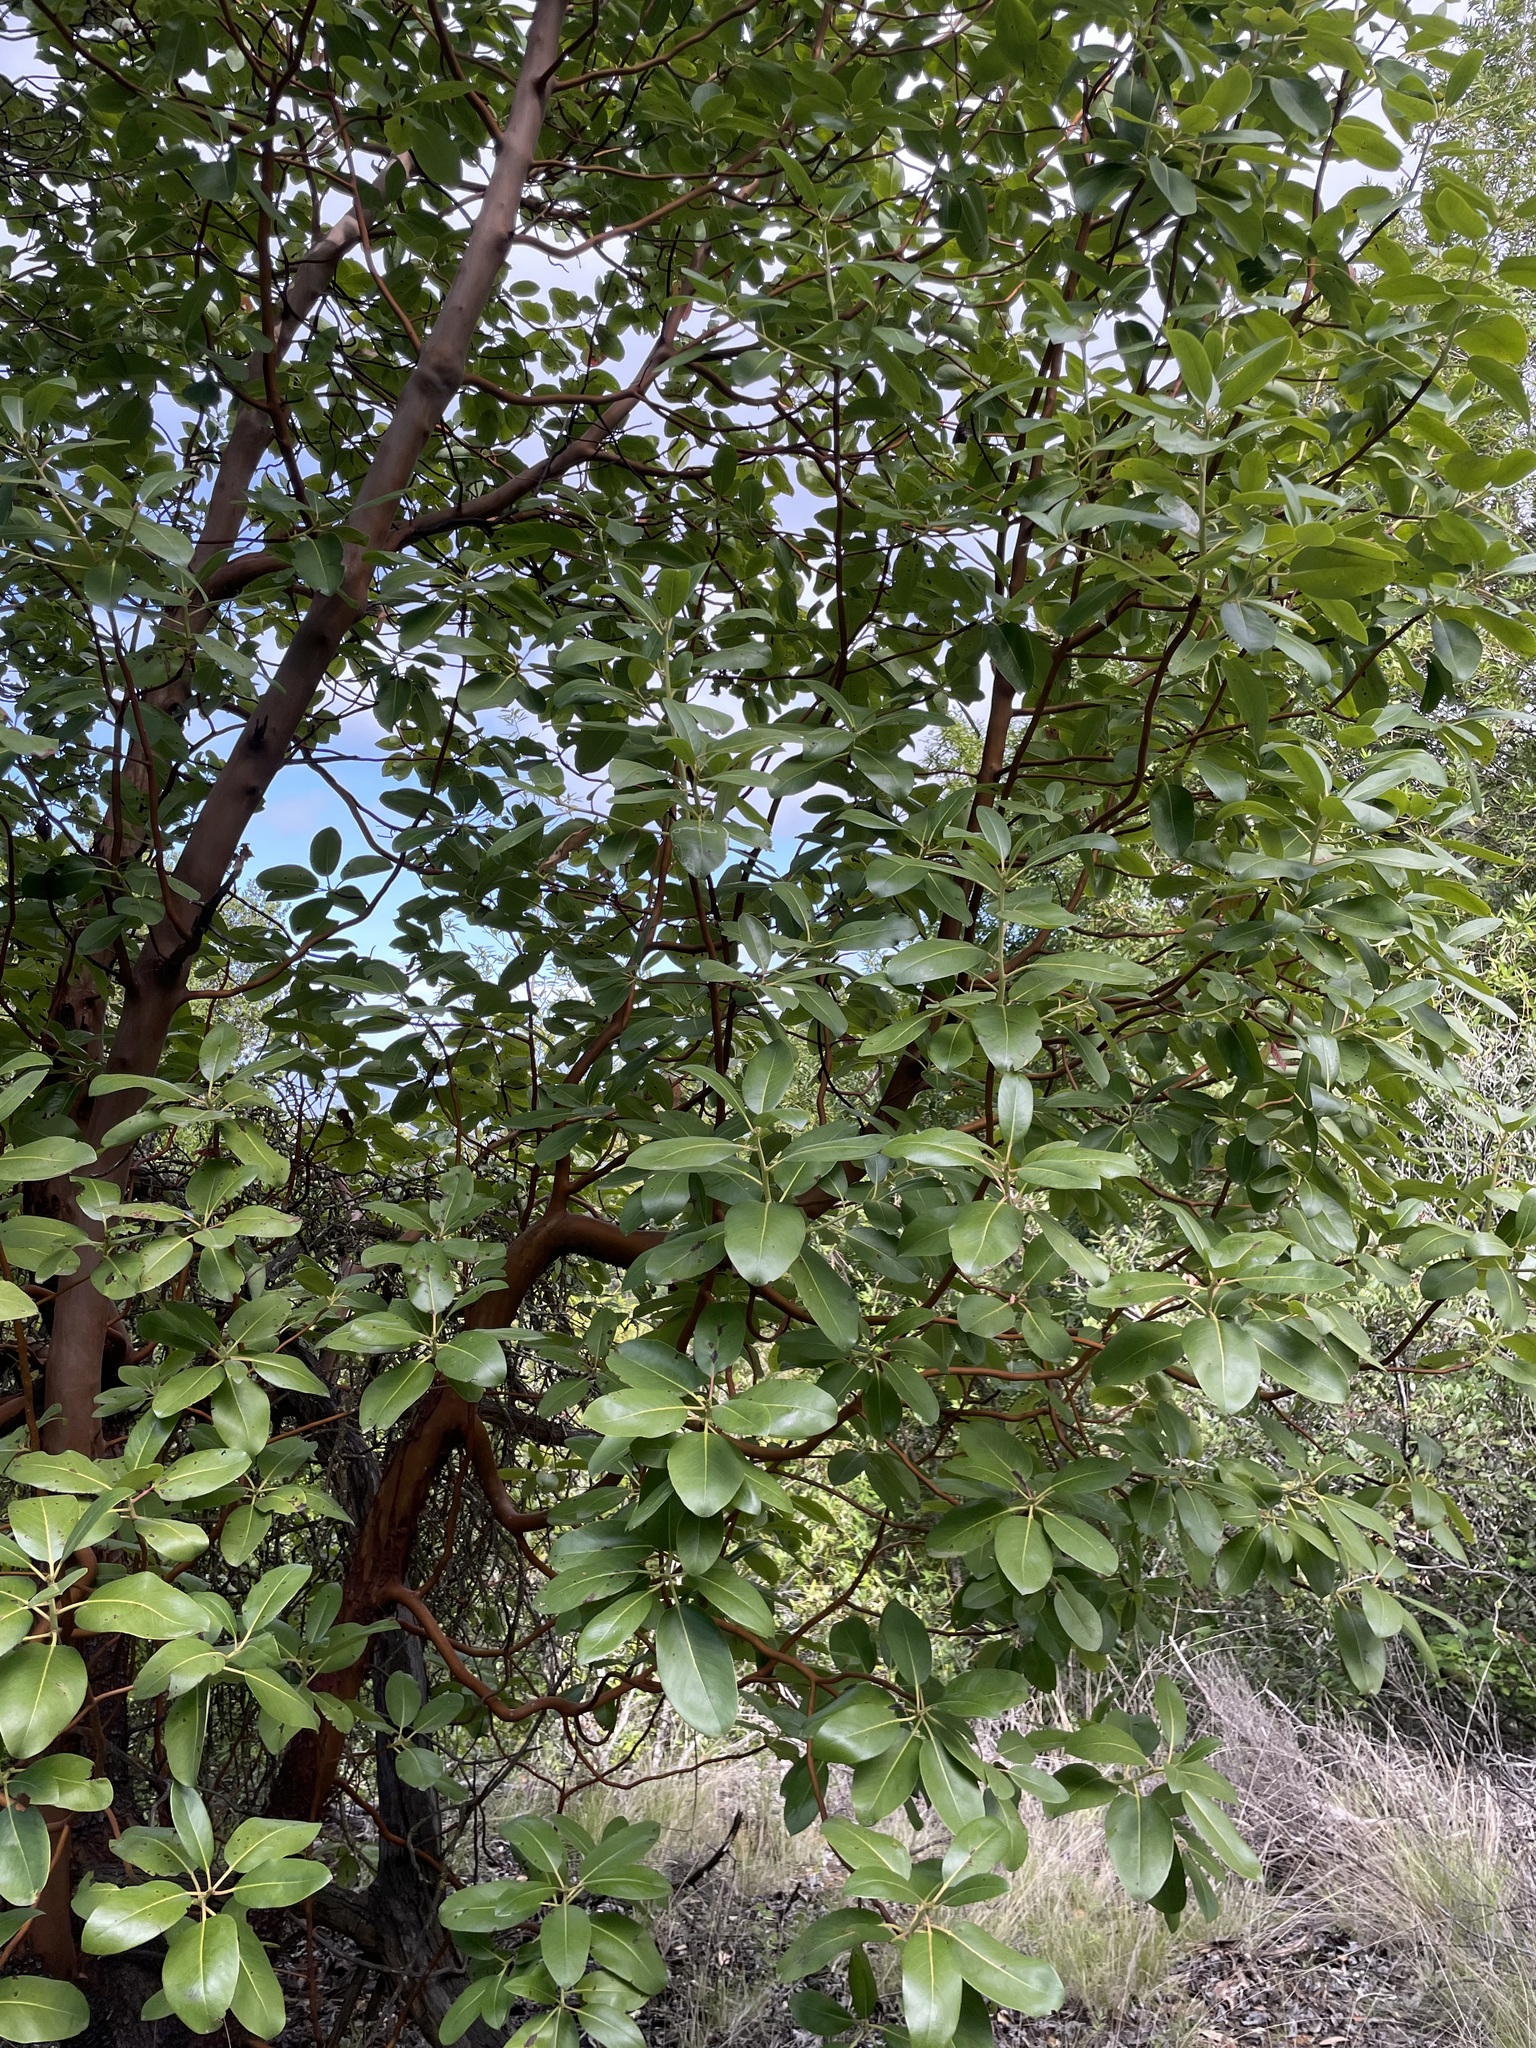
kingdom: Plantae
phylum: Tracheophyta
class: Magnoliopsida
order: Ericales
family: Ericaceae
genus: Arbutus
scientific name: Arbutus menziesii
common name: Pacific madrone
